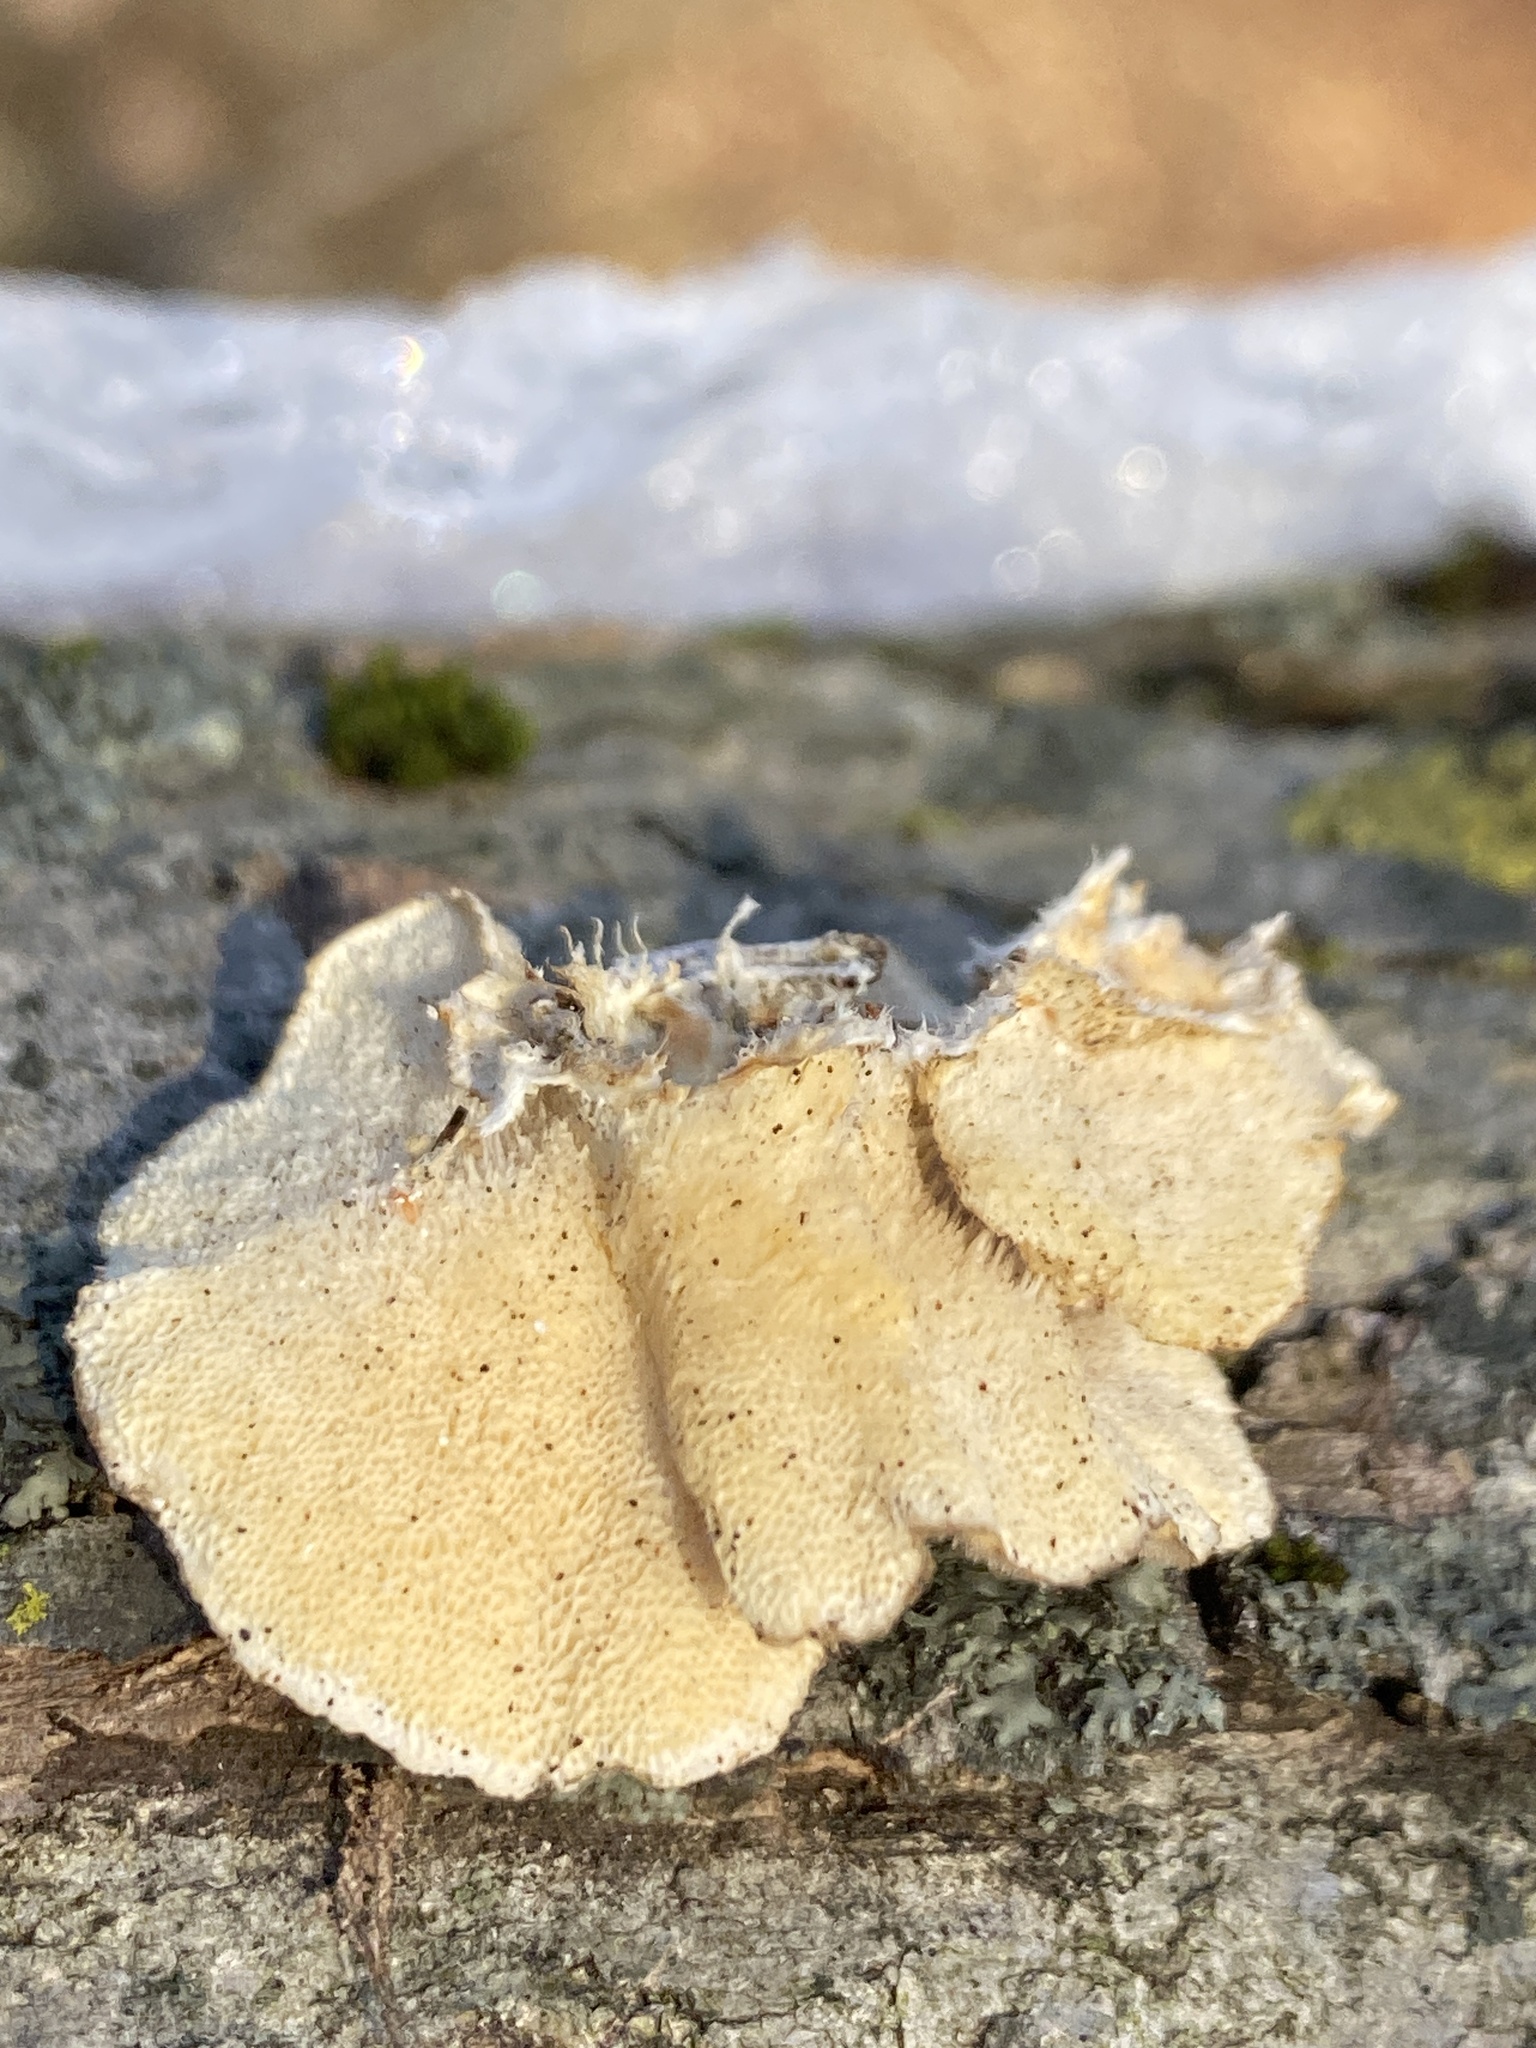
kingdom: Fungi
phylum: Basidiomycota
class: Agaricomycetes
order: Polyporales
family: Polyporaceae
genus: Trametes
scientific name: Trametes ochracea
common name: Ochre bracket
